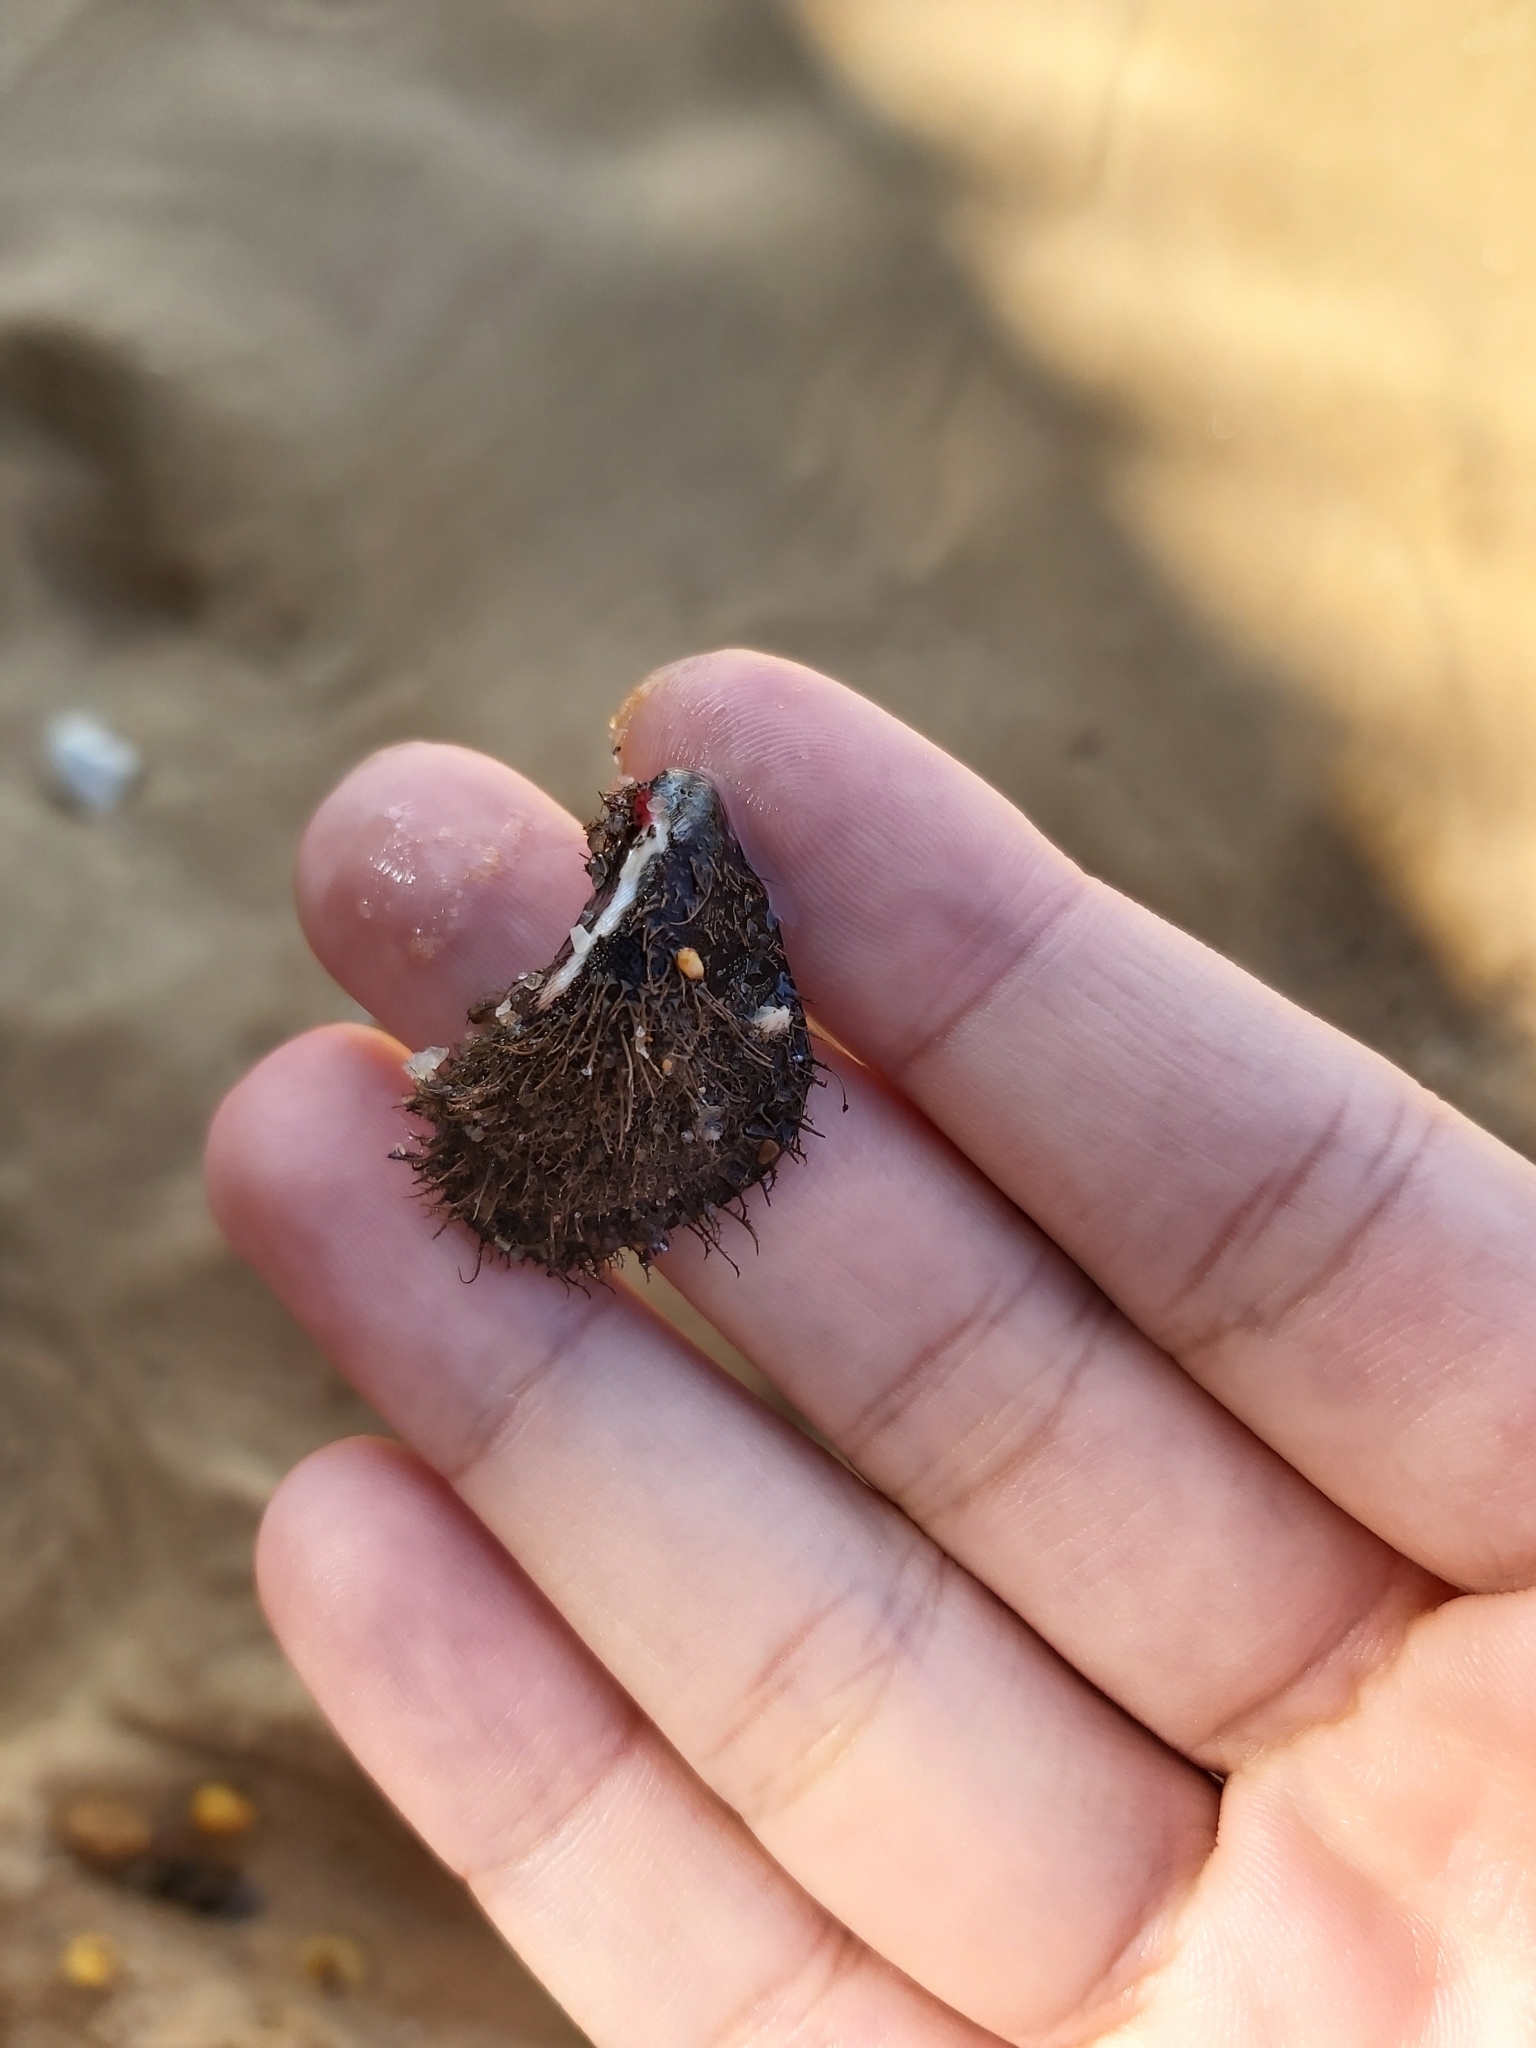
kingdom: Animalia
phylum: Mollusca
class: Bivalvia
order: Mytilida
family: Mytilidae
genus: Trichomya
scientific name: Trichomya hirsuta
